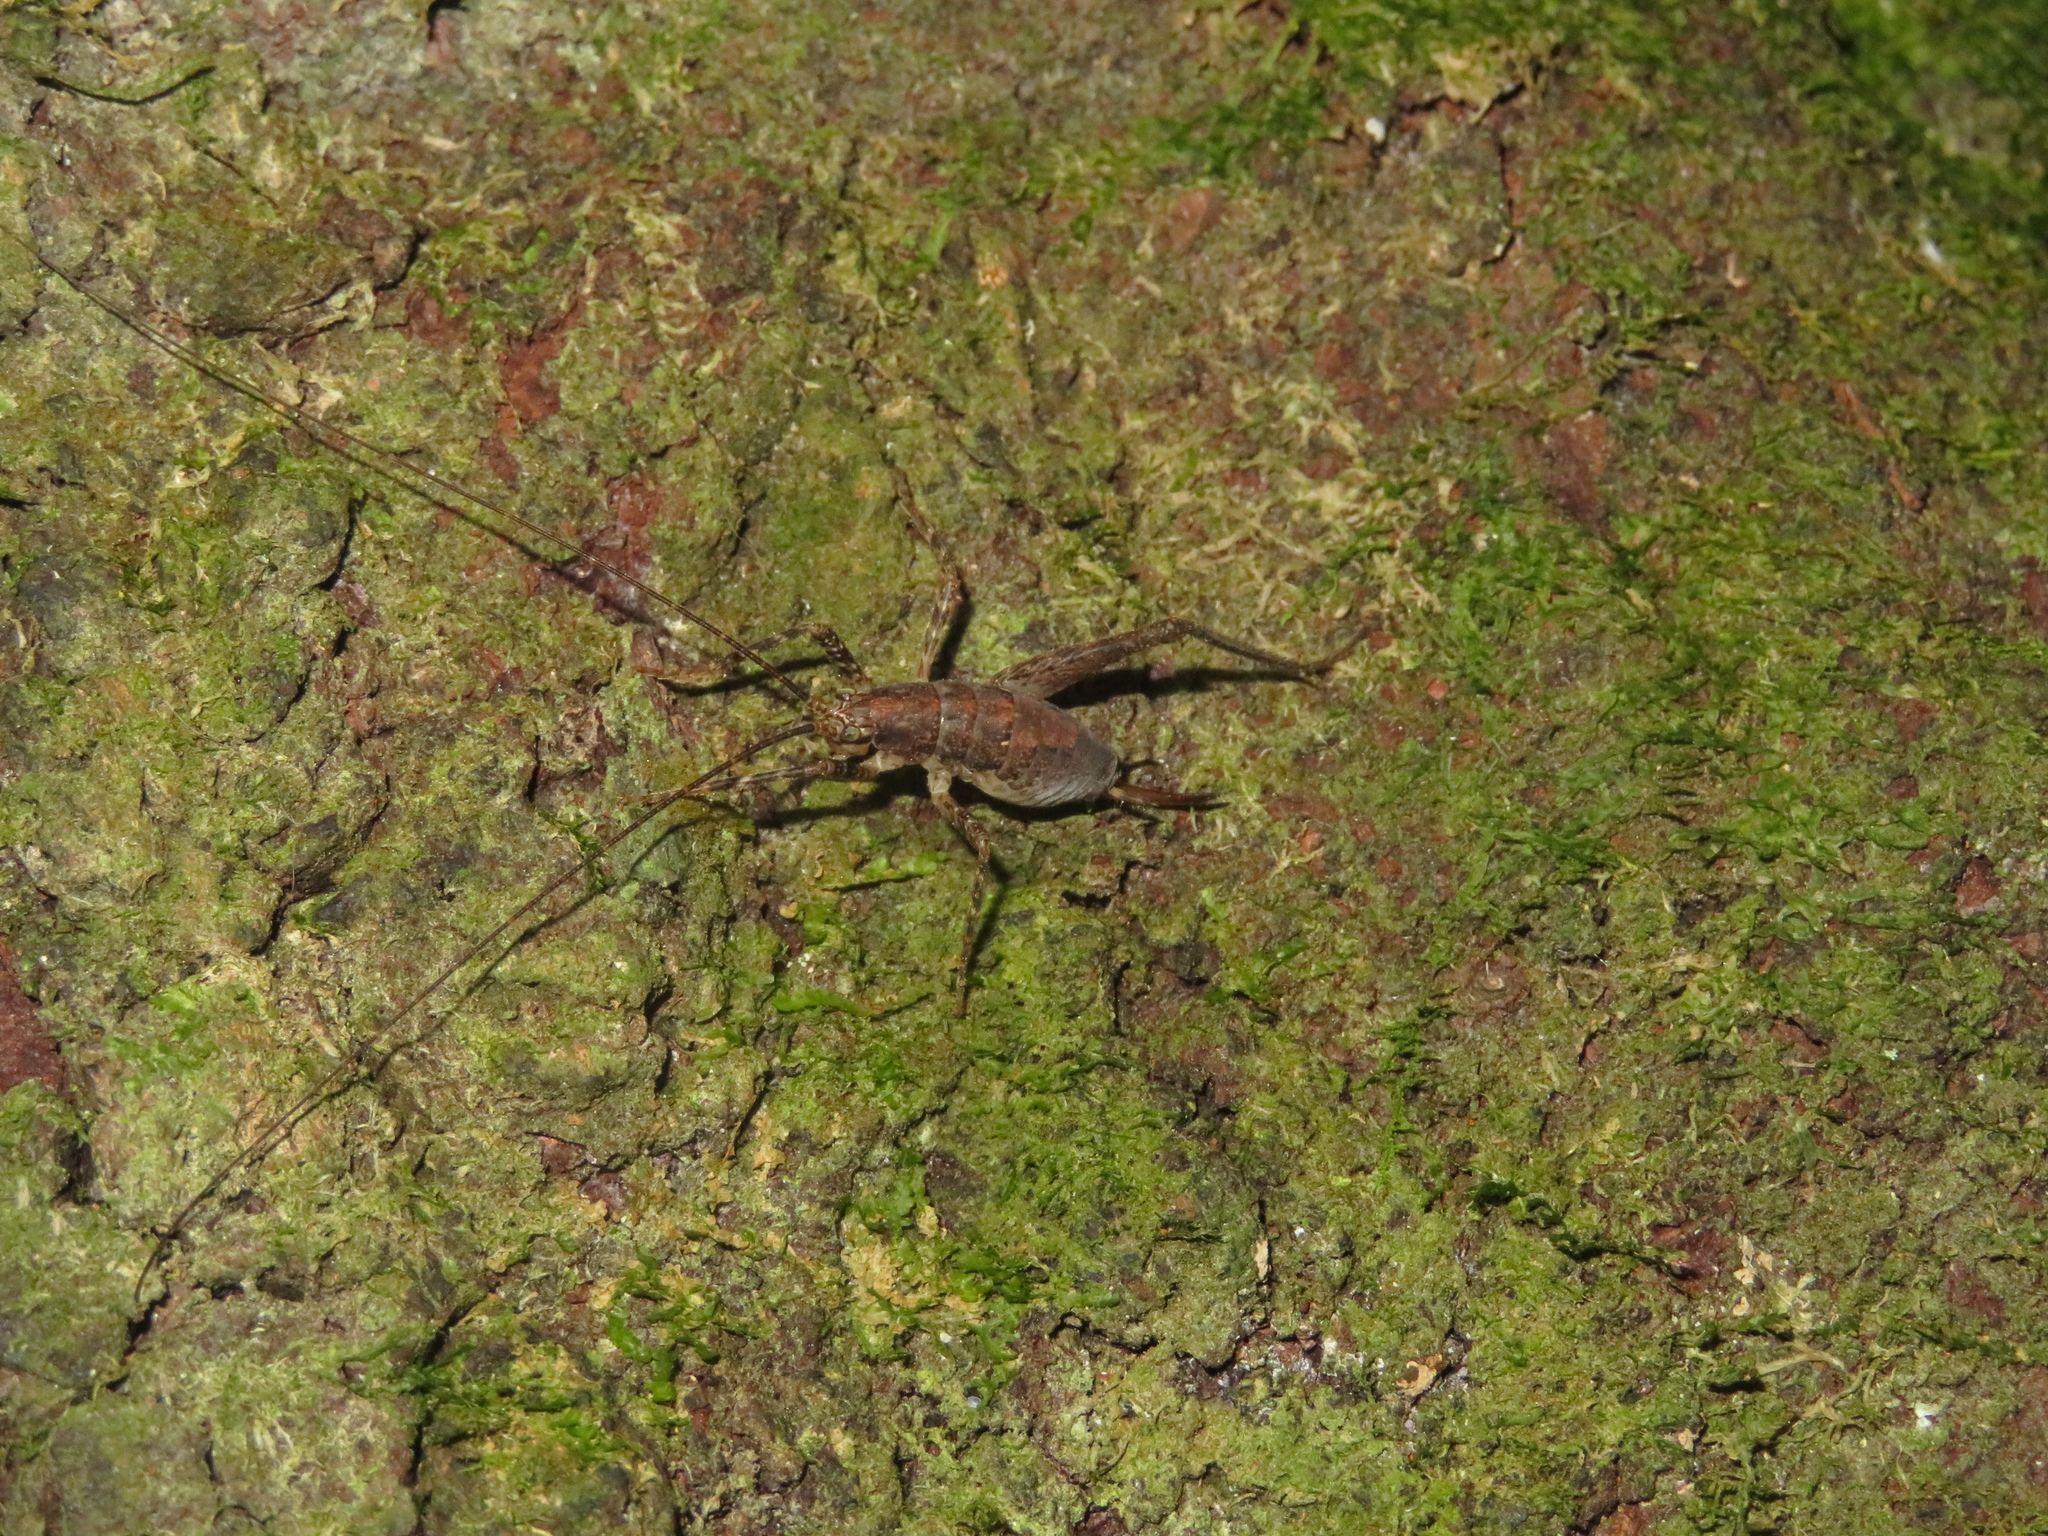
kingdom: Animalia
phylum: Arthropoda
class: Insecta
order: Orthoptera
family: Rhaphidophoridae
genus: Isoplectron
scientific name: Isoplectron armatum
